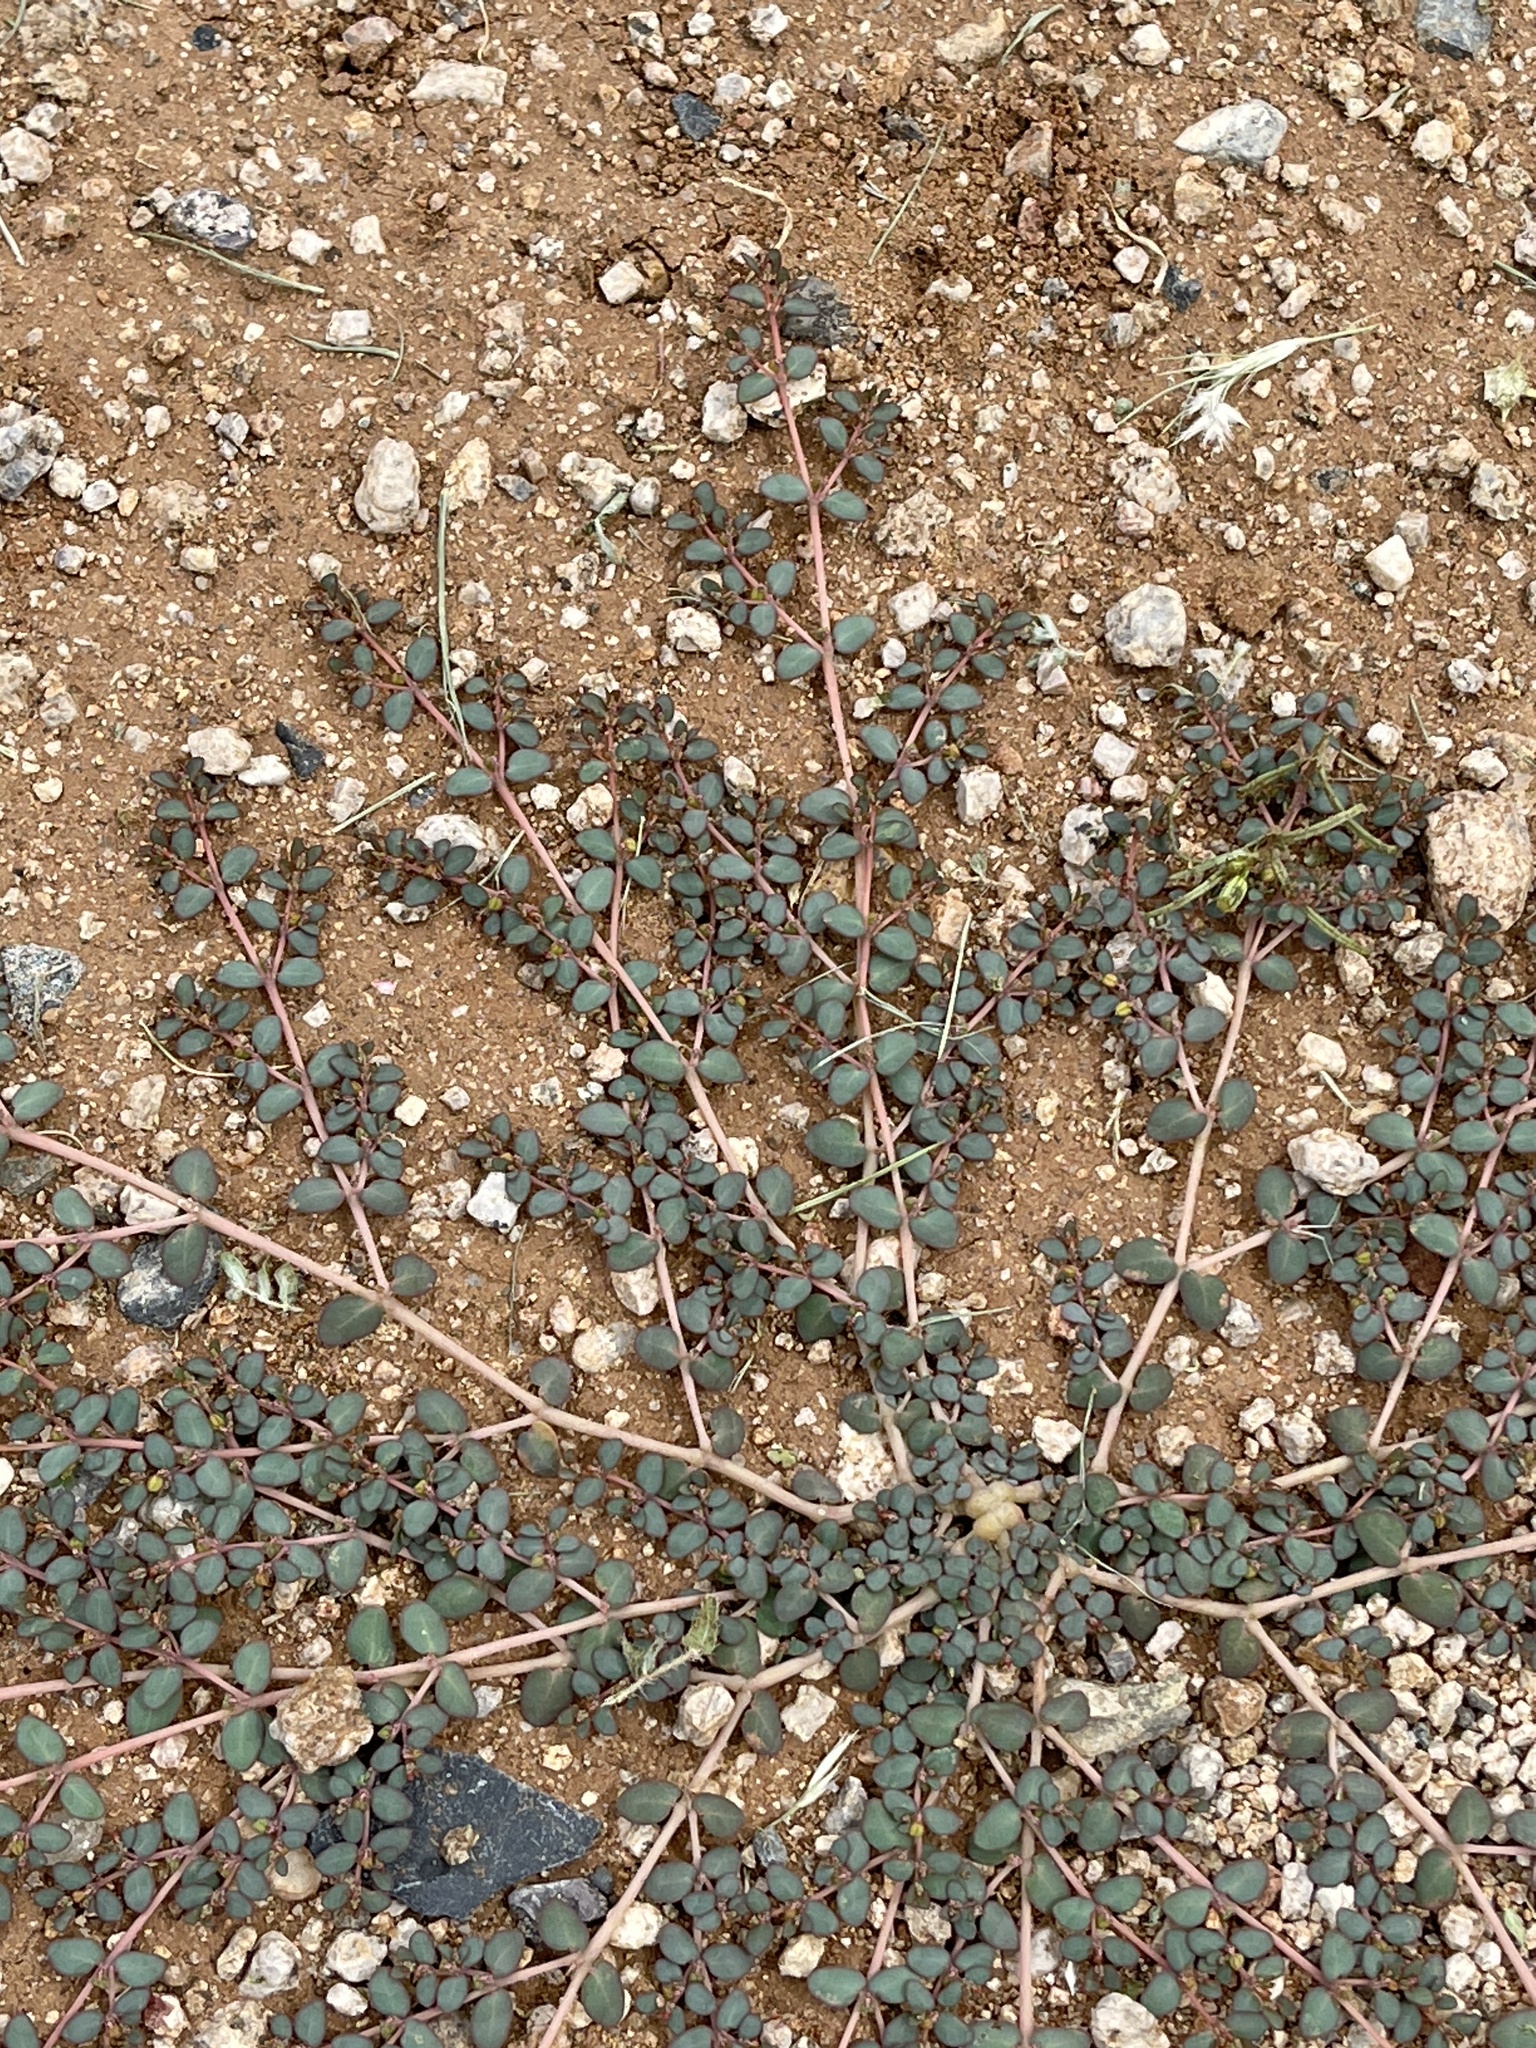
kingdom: Plantae
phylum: Tracheophyta
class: Magnoliopsida
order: Malpighiales
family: Euphorbiaceae
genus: Euphorbia
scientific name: Euphorbia micromera
